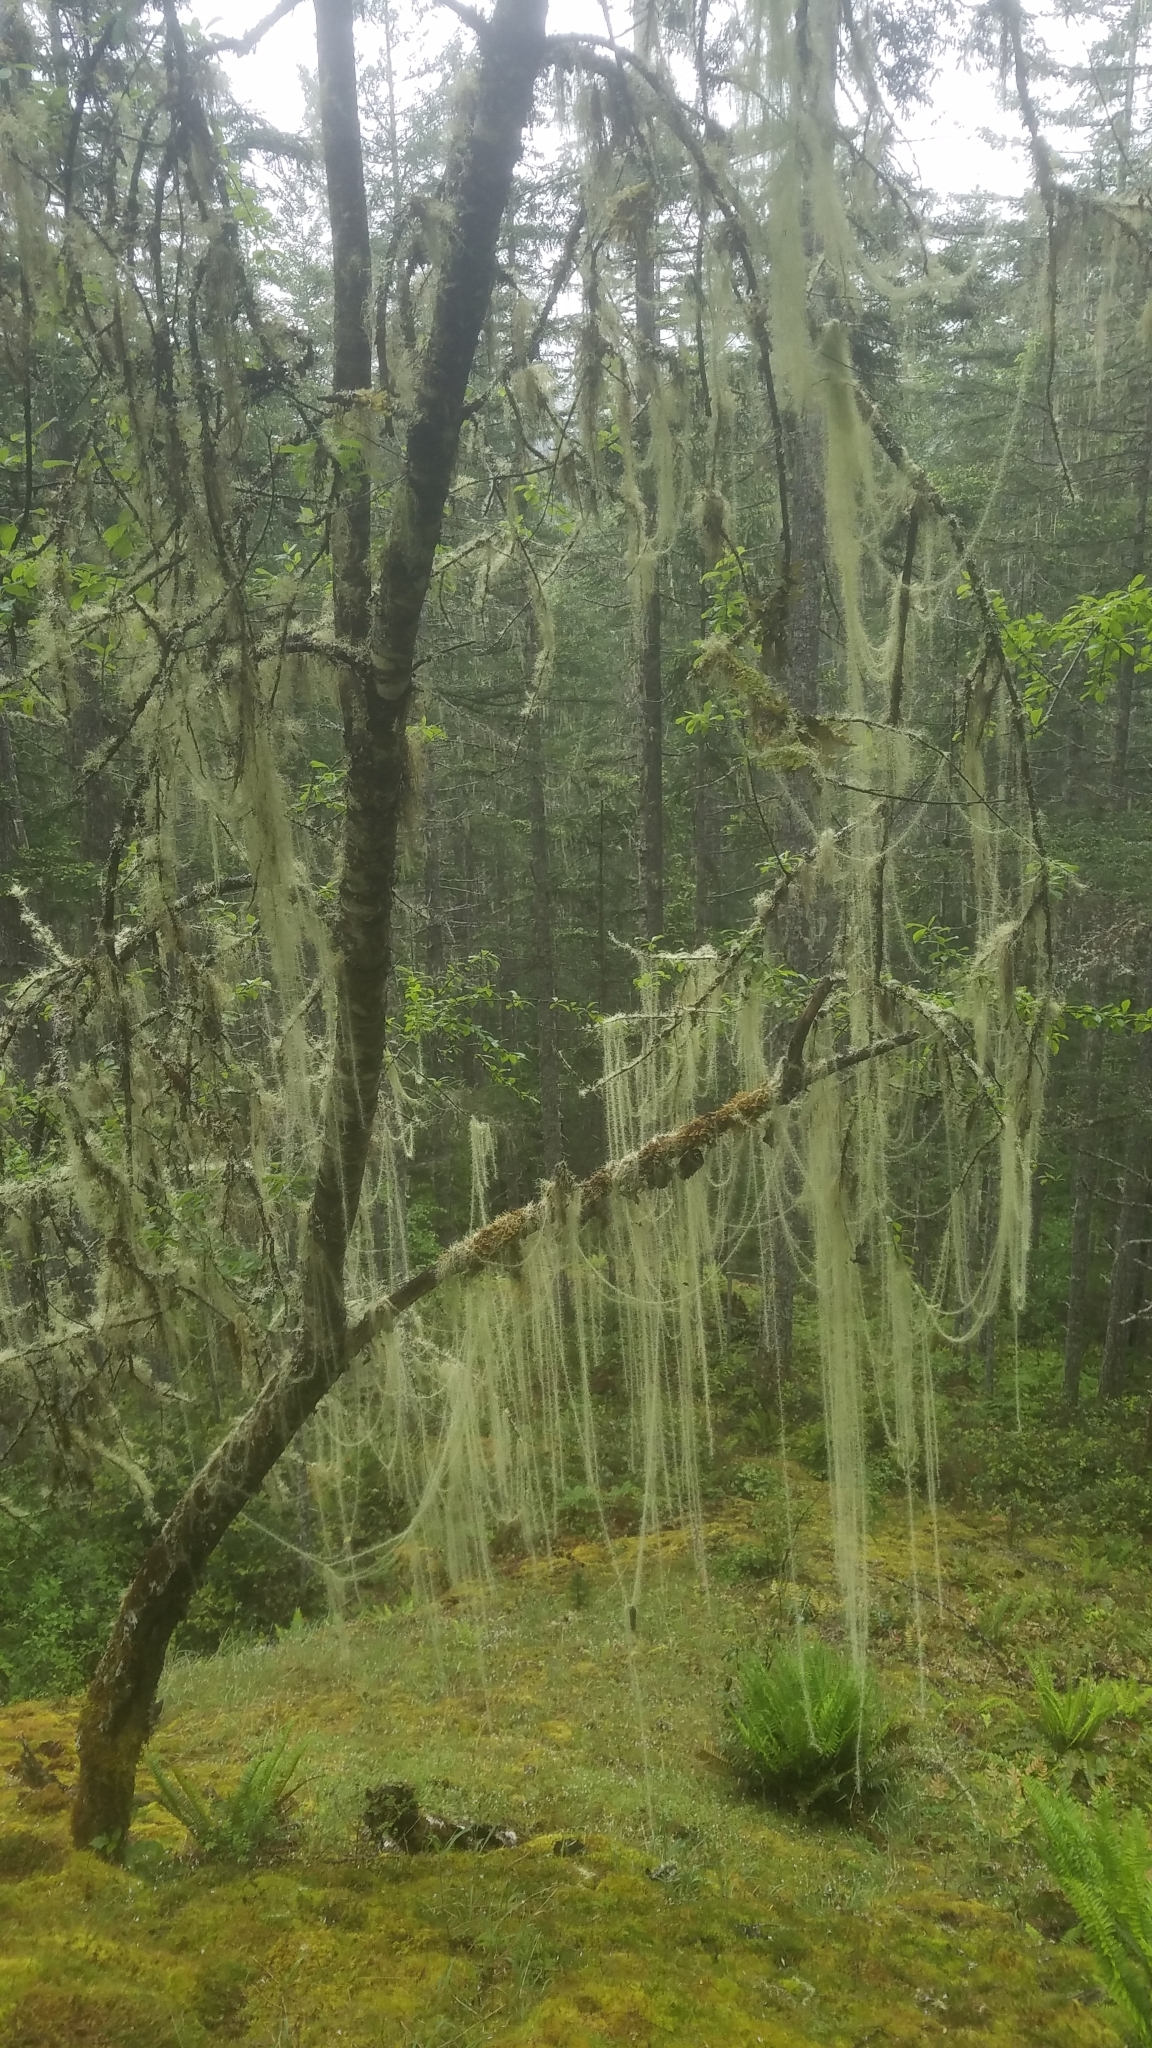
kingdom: Fungi
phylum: Ascomycota
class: Lecanoromycetes
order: Lecanorales
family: Parmeliaceae
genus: Dolichousnea
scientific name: Dolichousnea longissima
